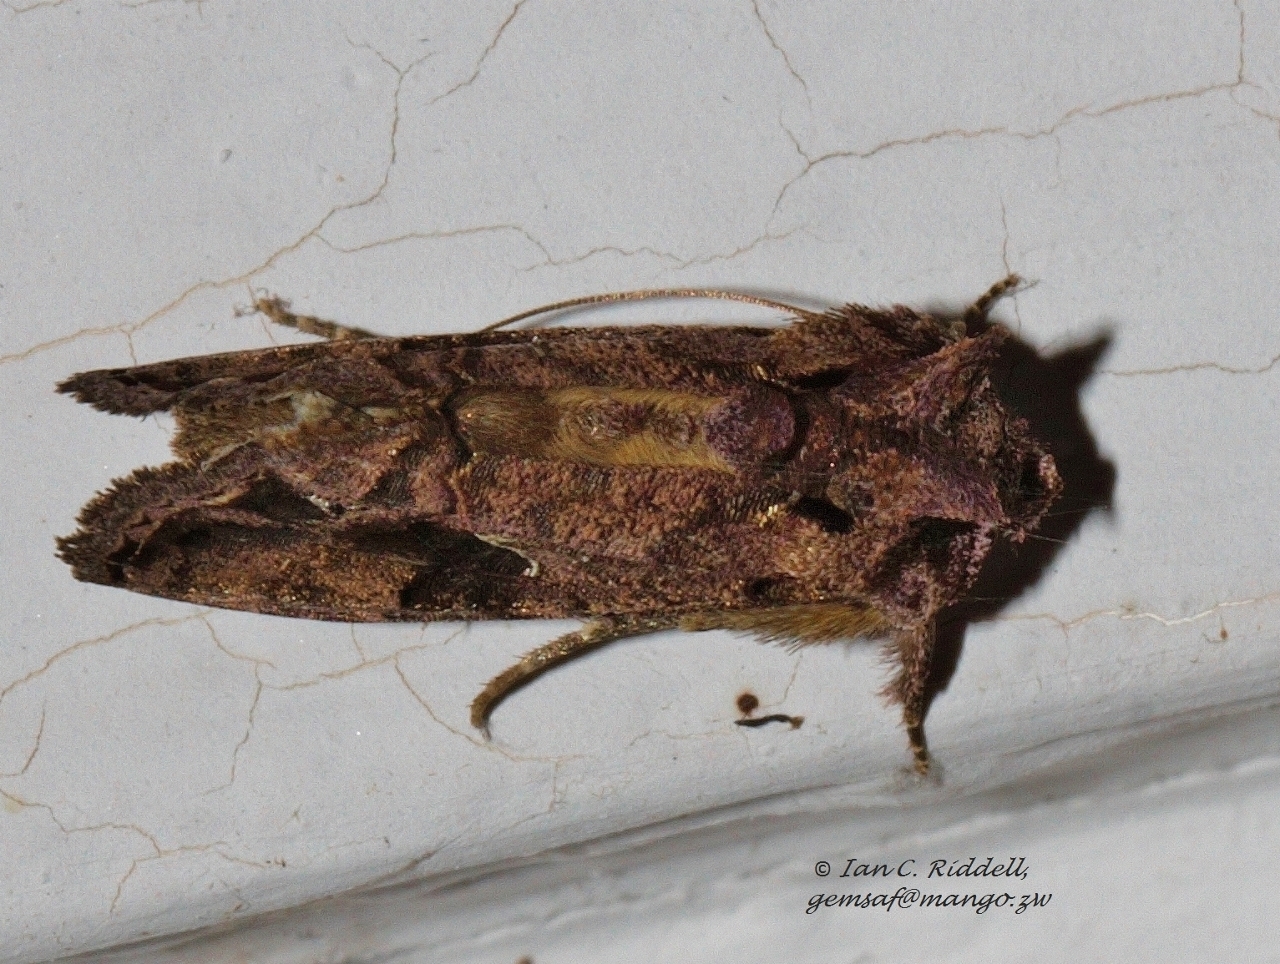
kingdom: Animalia
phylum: Arthropoda
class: Insecta
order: Lepidoptera
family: Noctuidae
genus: Ctenoplusia
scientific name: Ctenoplusia accentifera
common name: Accent gem
